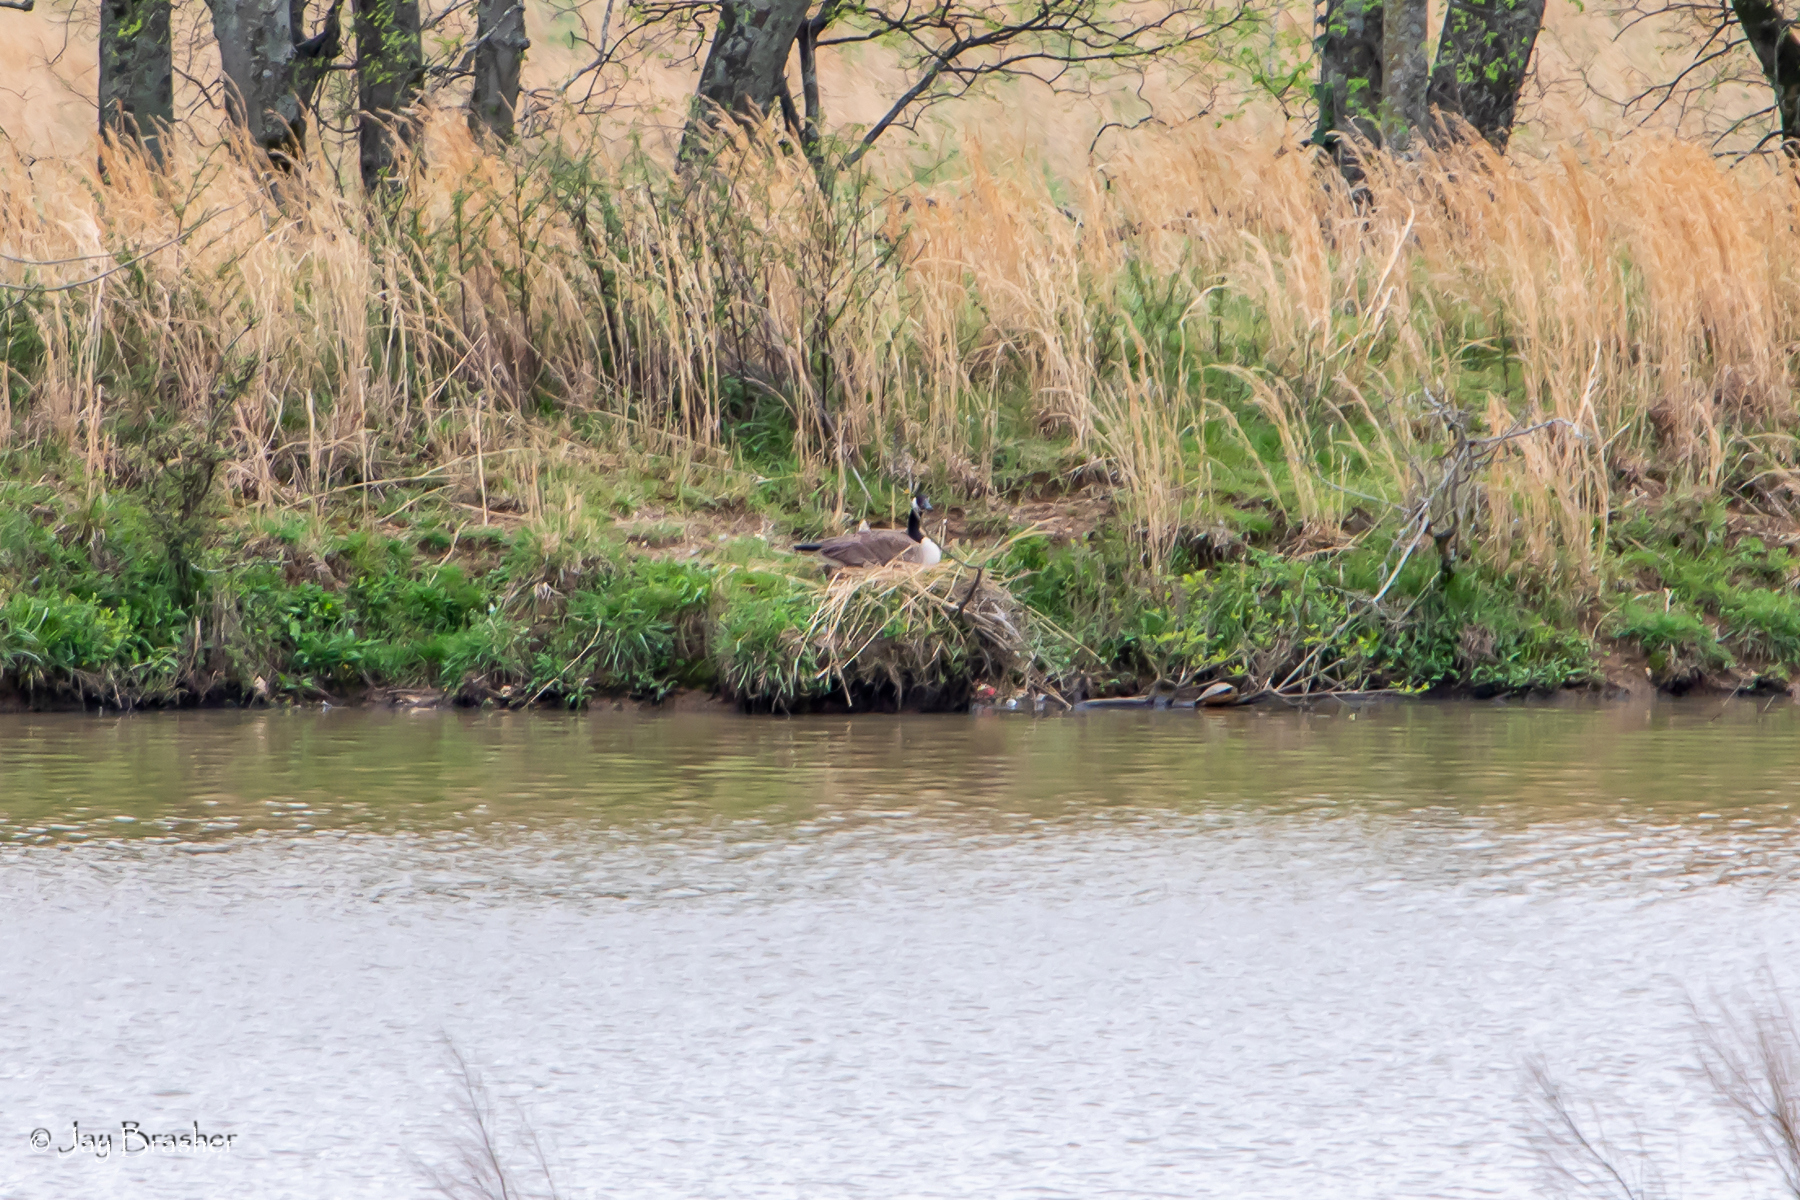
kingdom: Animalia
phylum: Chordata
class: Aves
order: Anseriformes
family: Anatidae
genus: Branta
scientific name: Branta canadensis
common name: Canada goose
